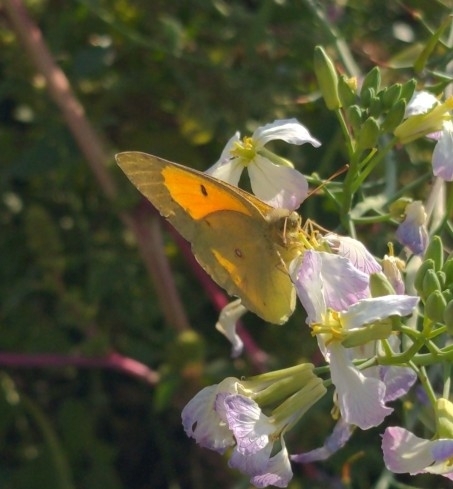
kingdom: Animalia
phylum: Arthropoda
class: Insecta
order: Lepidoptera
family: Pieridae
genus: Colias
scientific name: Colias eurytheme
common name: Alfalfa butterfly
